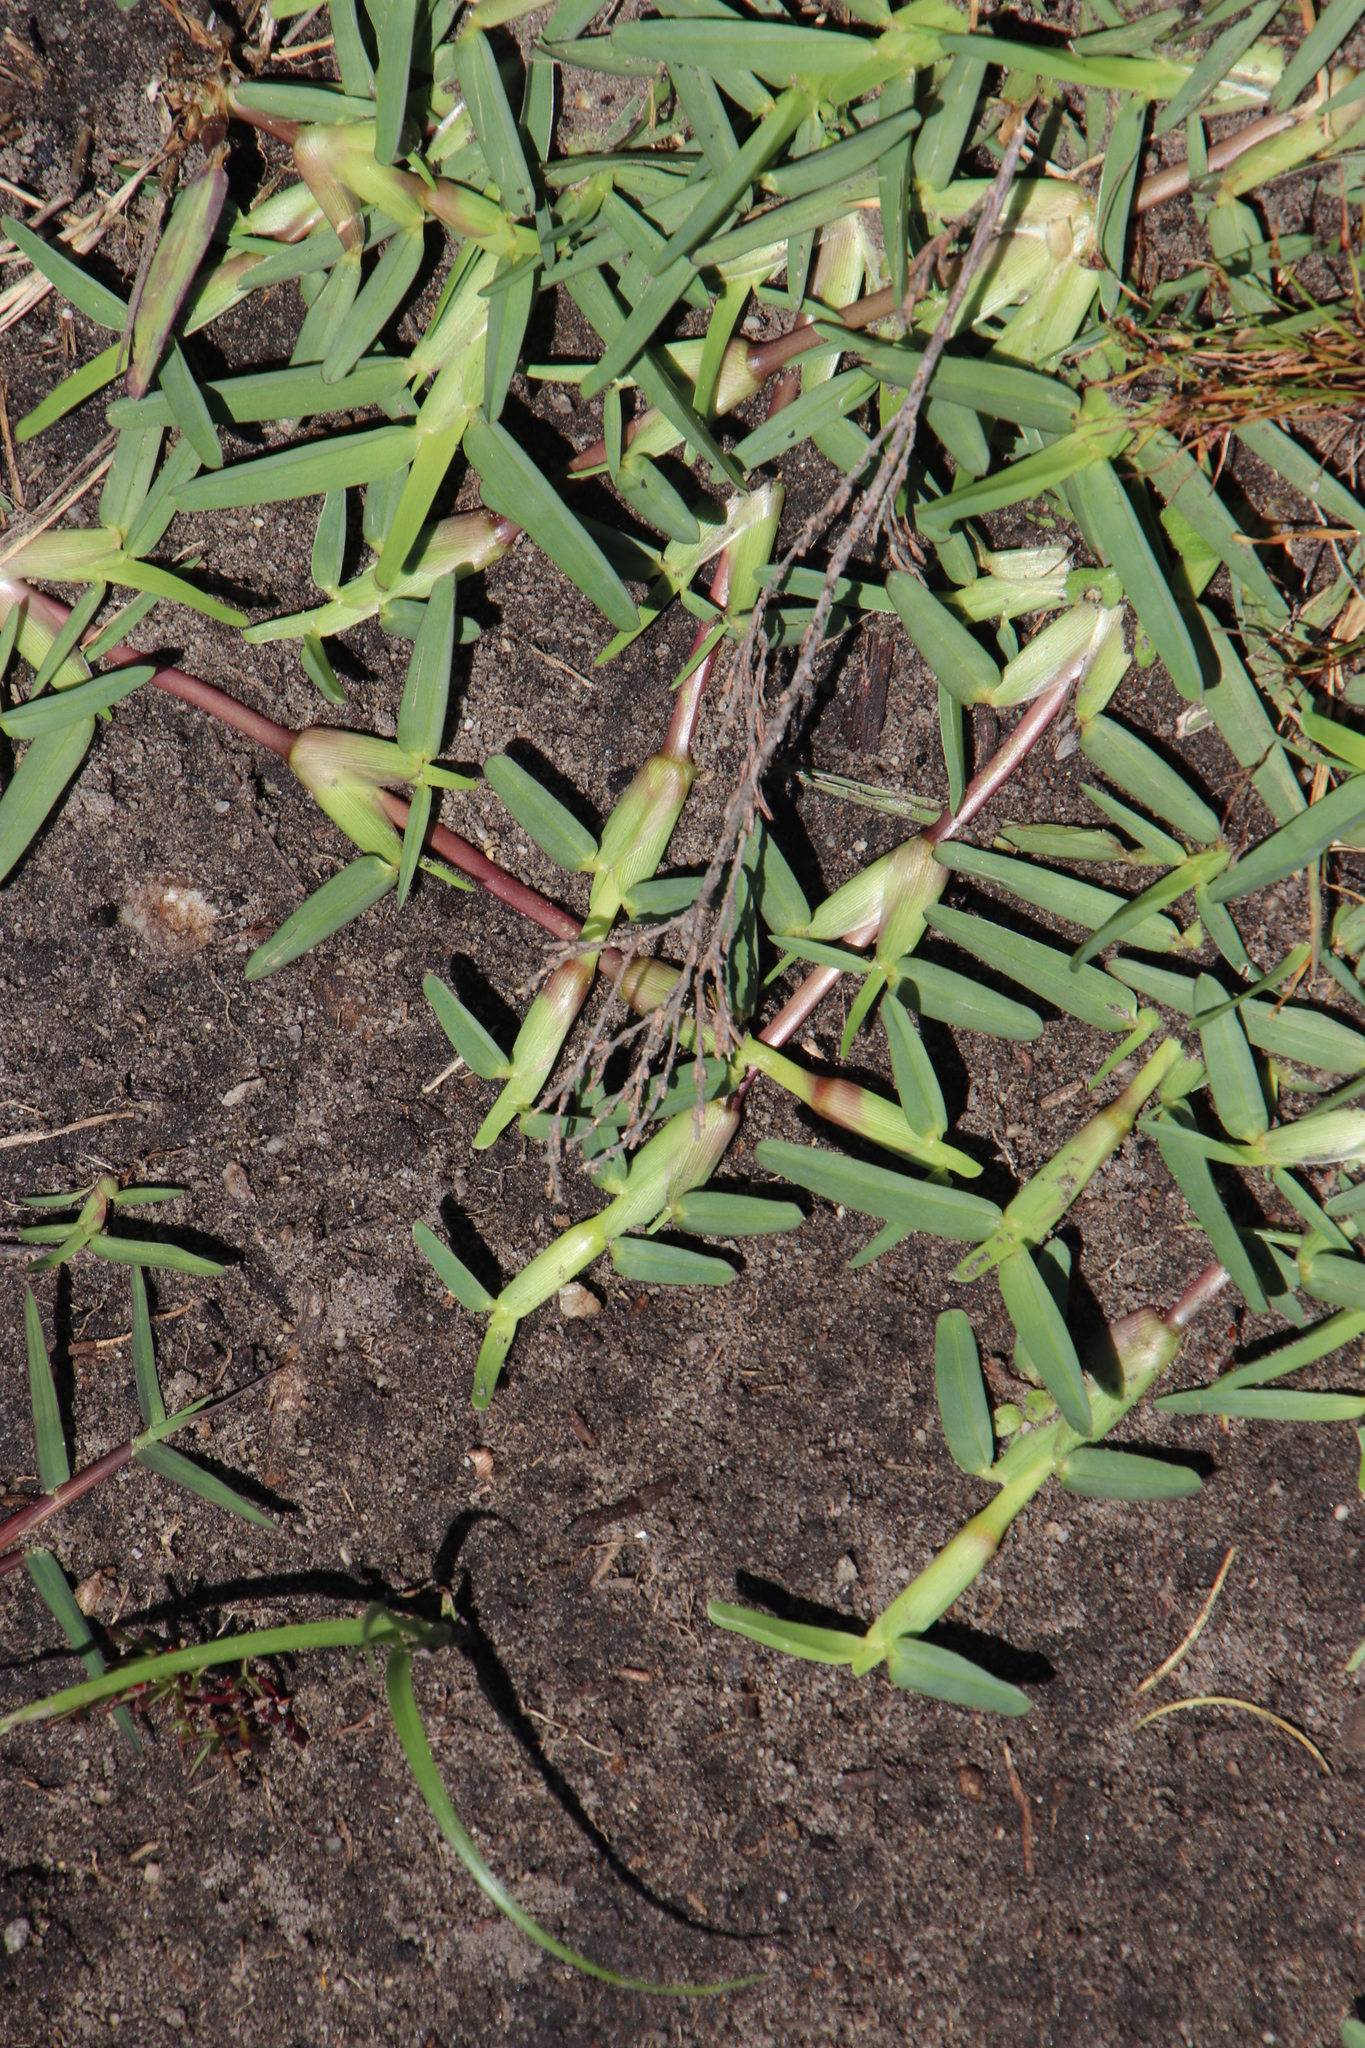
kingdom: Plantae
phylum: Tracheophyta
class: Liliopsida
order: Poales
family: Poaceae
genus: Stenotaphrum
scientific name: Stenotaphrum secundatum
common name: St. augustine grass
